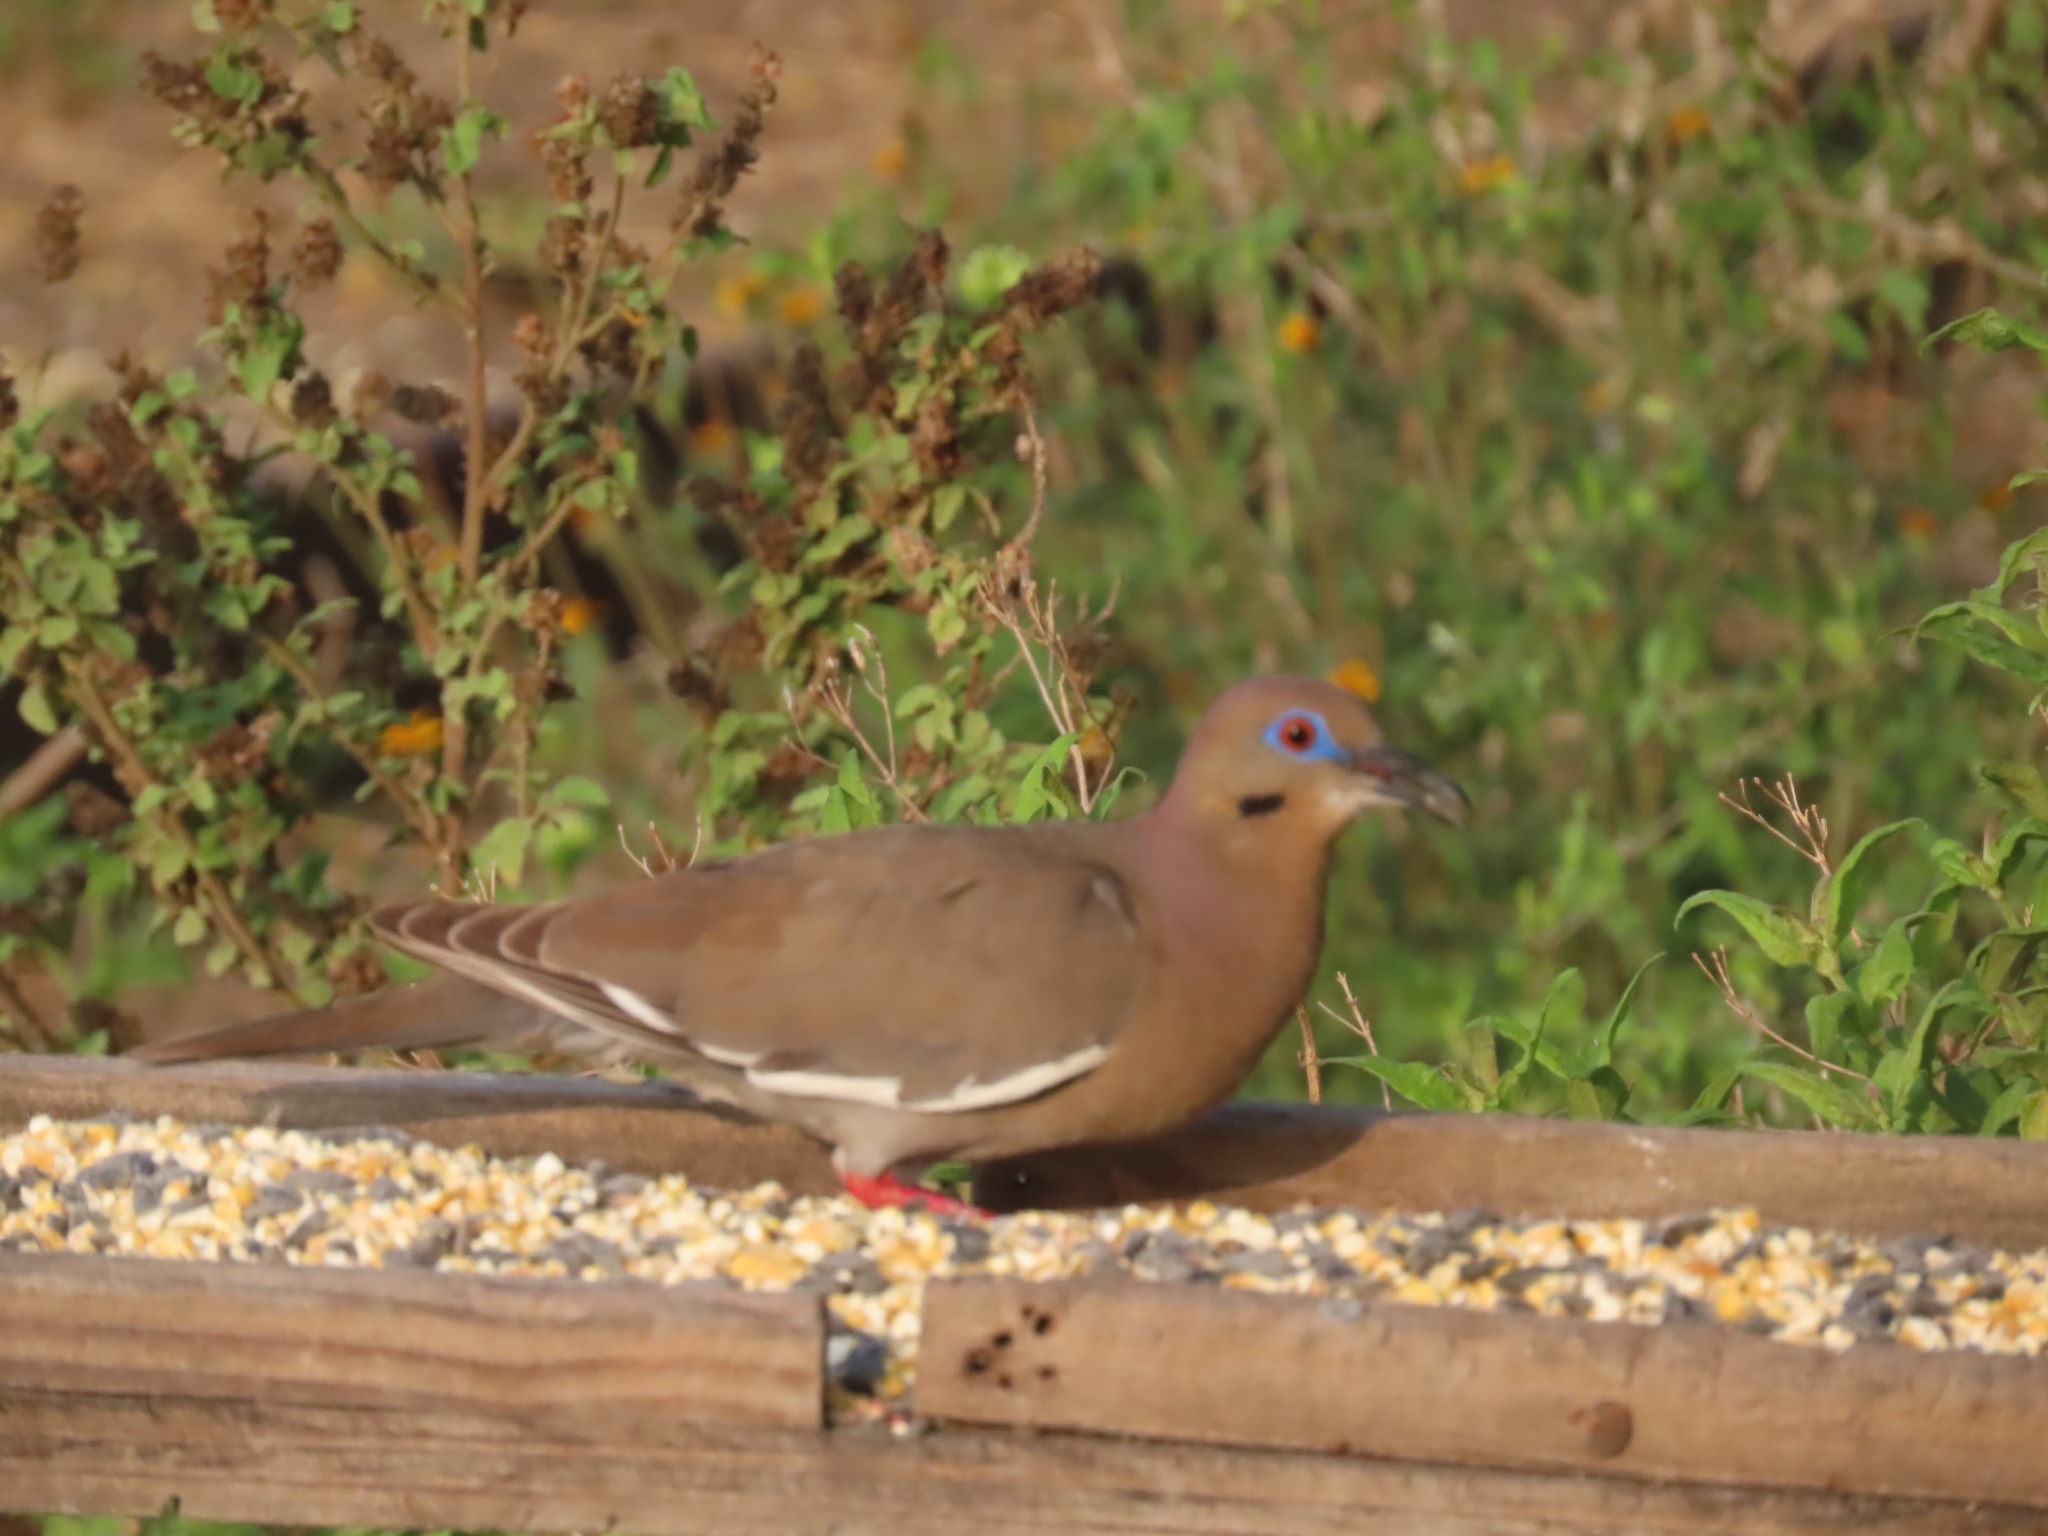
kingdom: Animalia
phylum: Chordata
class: Aves
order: Columbiformes
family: Columbidae
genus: Zenaida
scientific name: Zenaida asiatica
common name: White-winged dove
